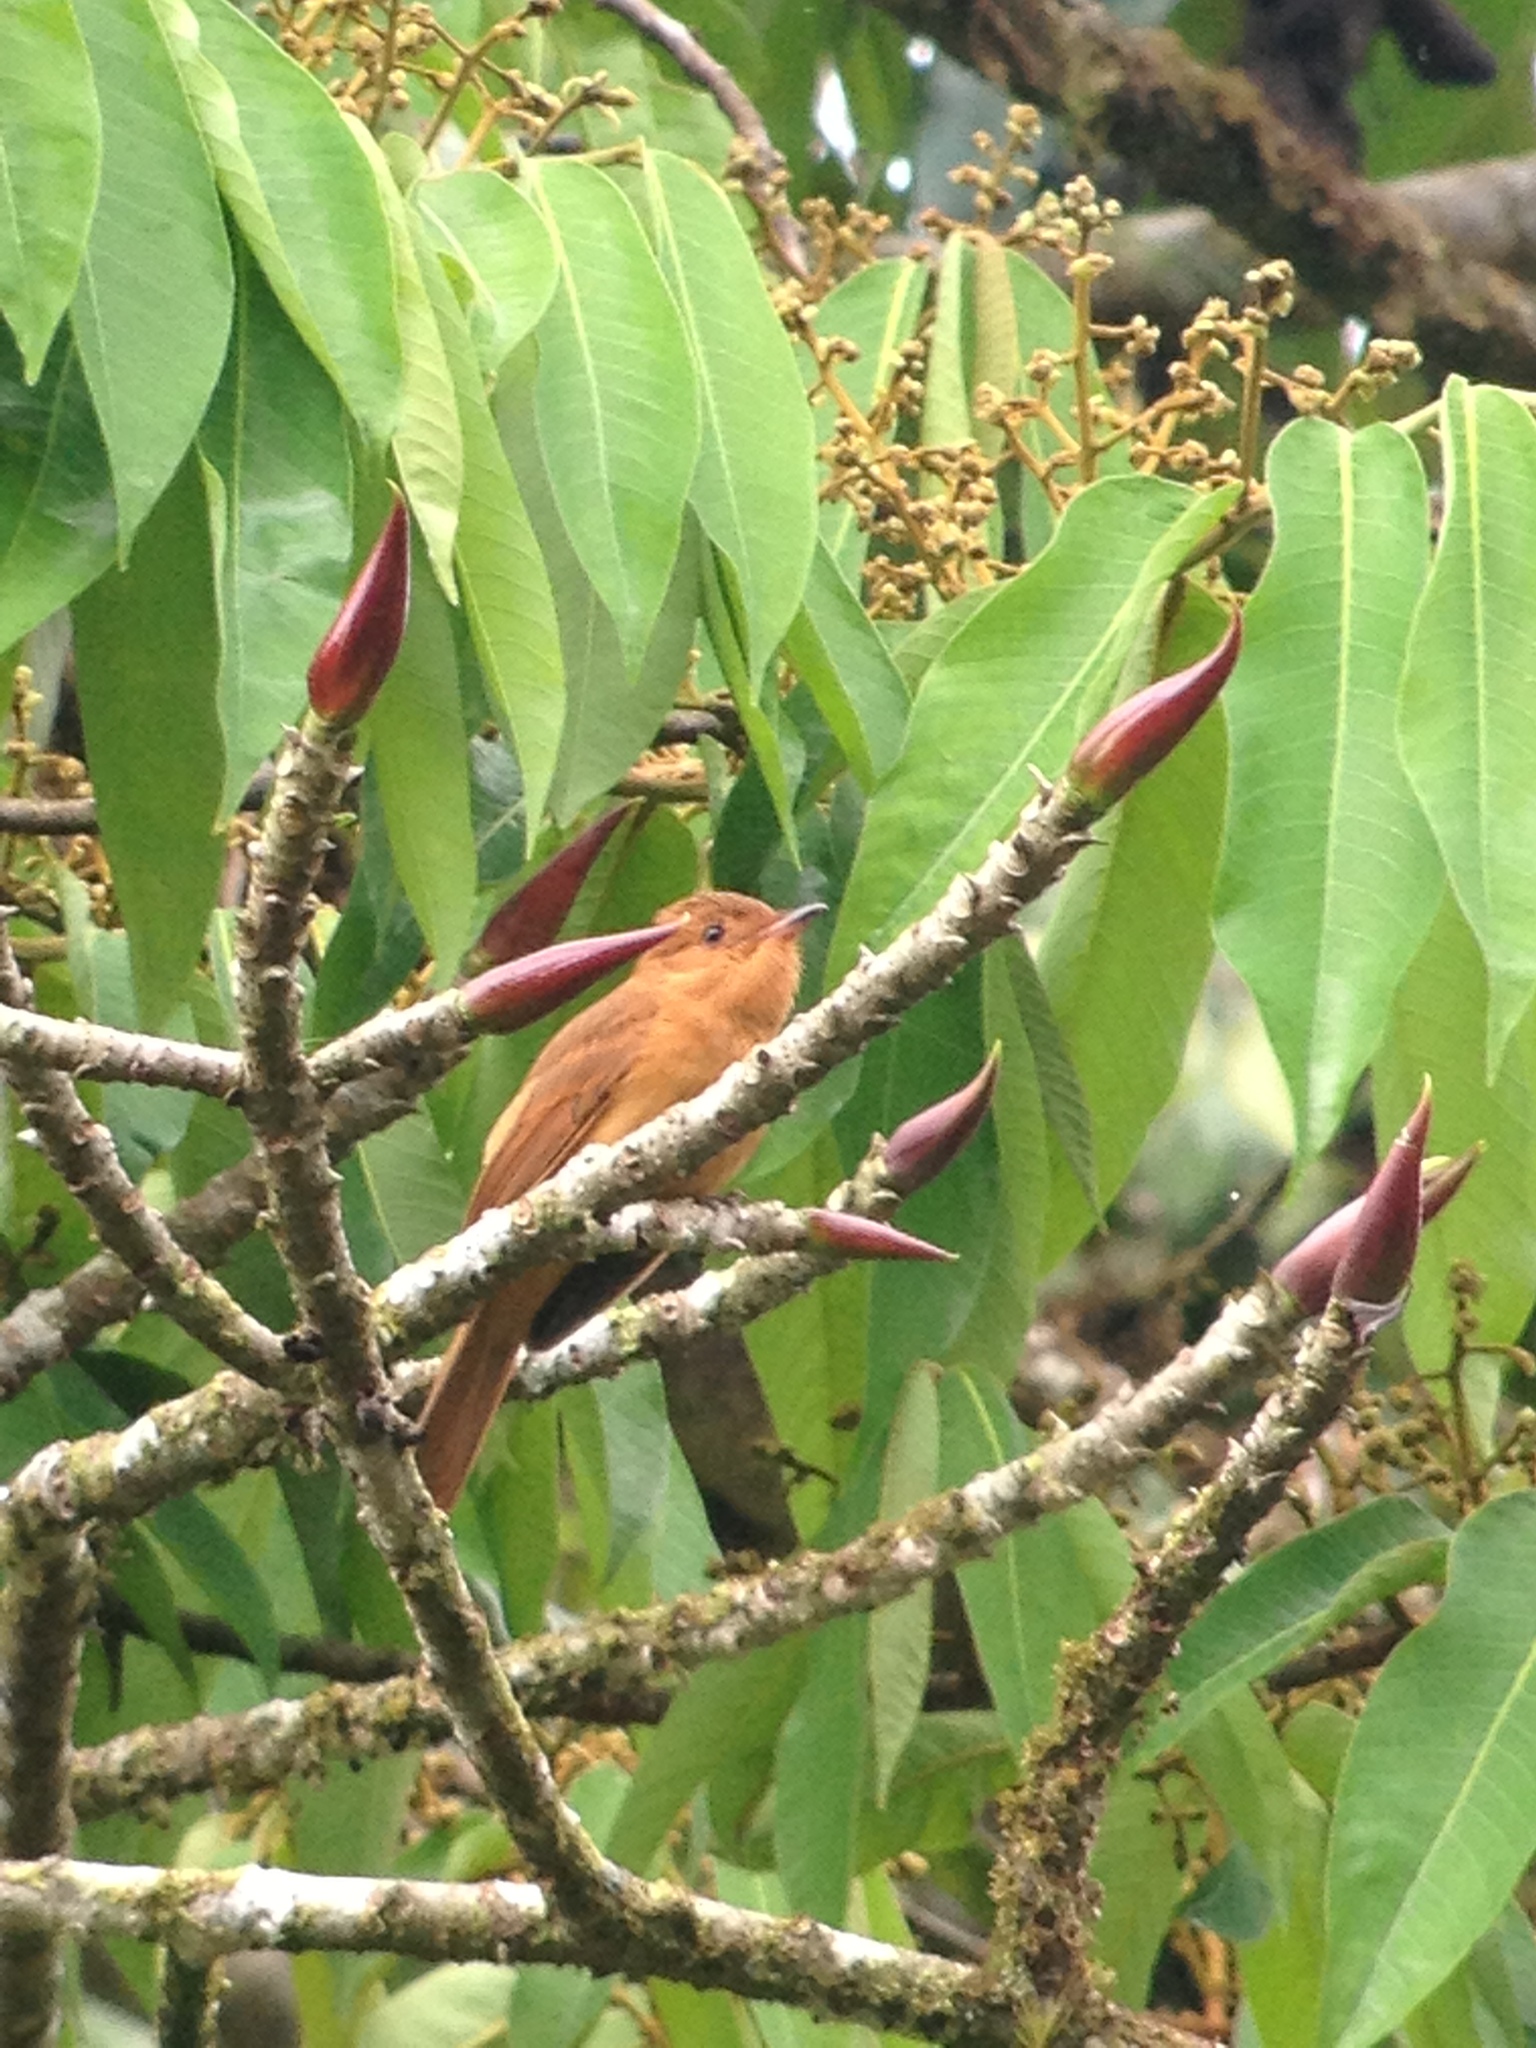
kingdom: Animalia
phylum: Chordata
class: Aves
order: Passeriformes
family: Tyrannidae
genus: Rhytipterna
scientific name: Rhytipterna holerythra
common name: Rufous mourner
